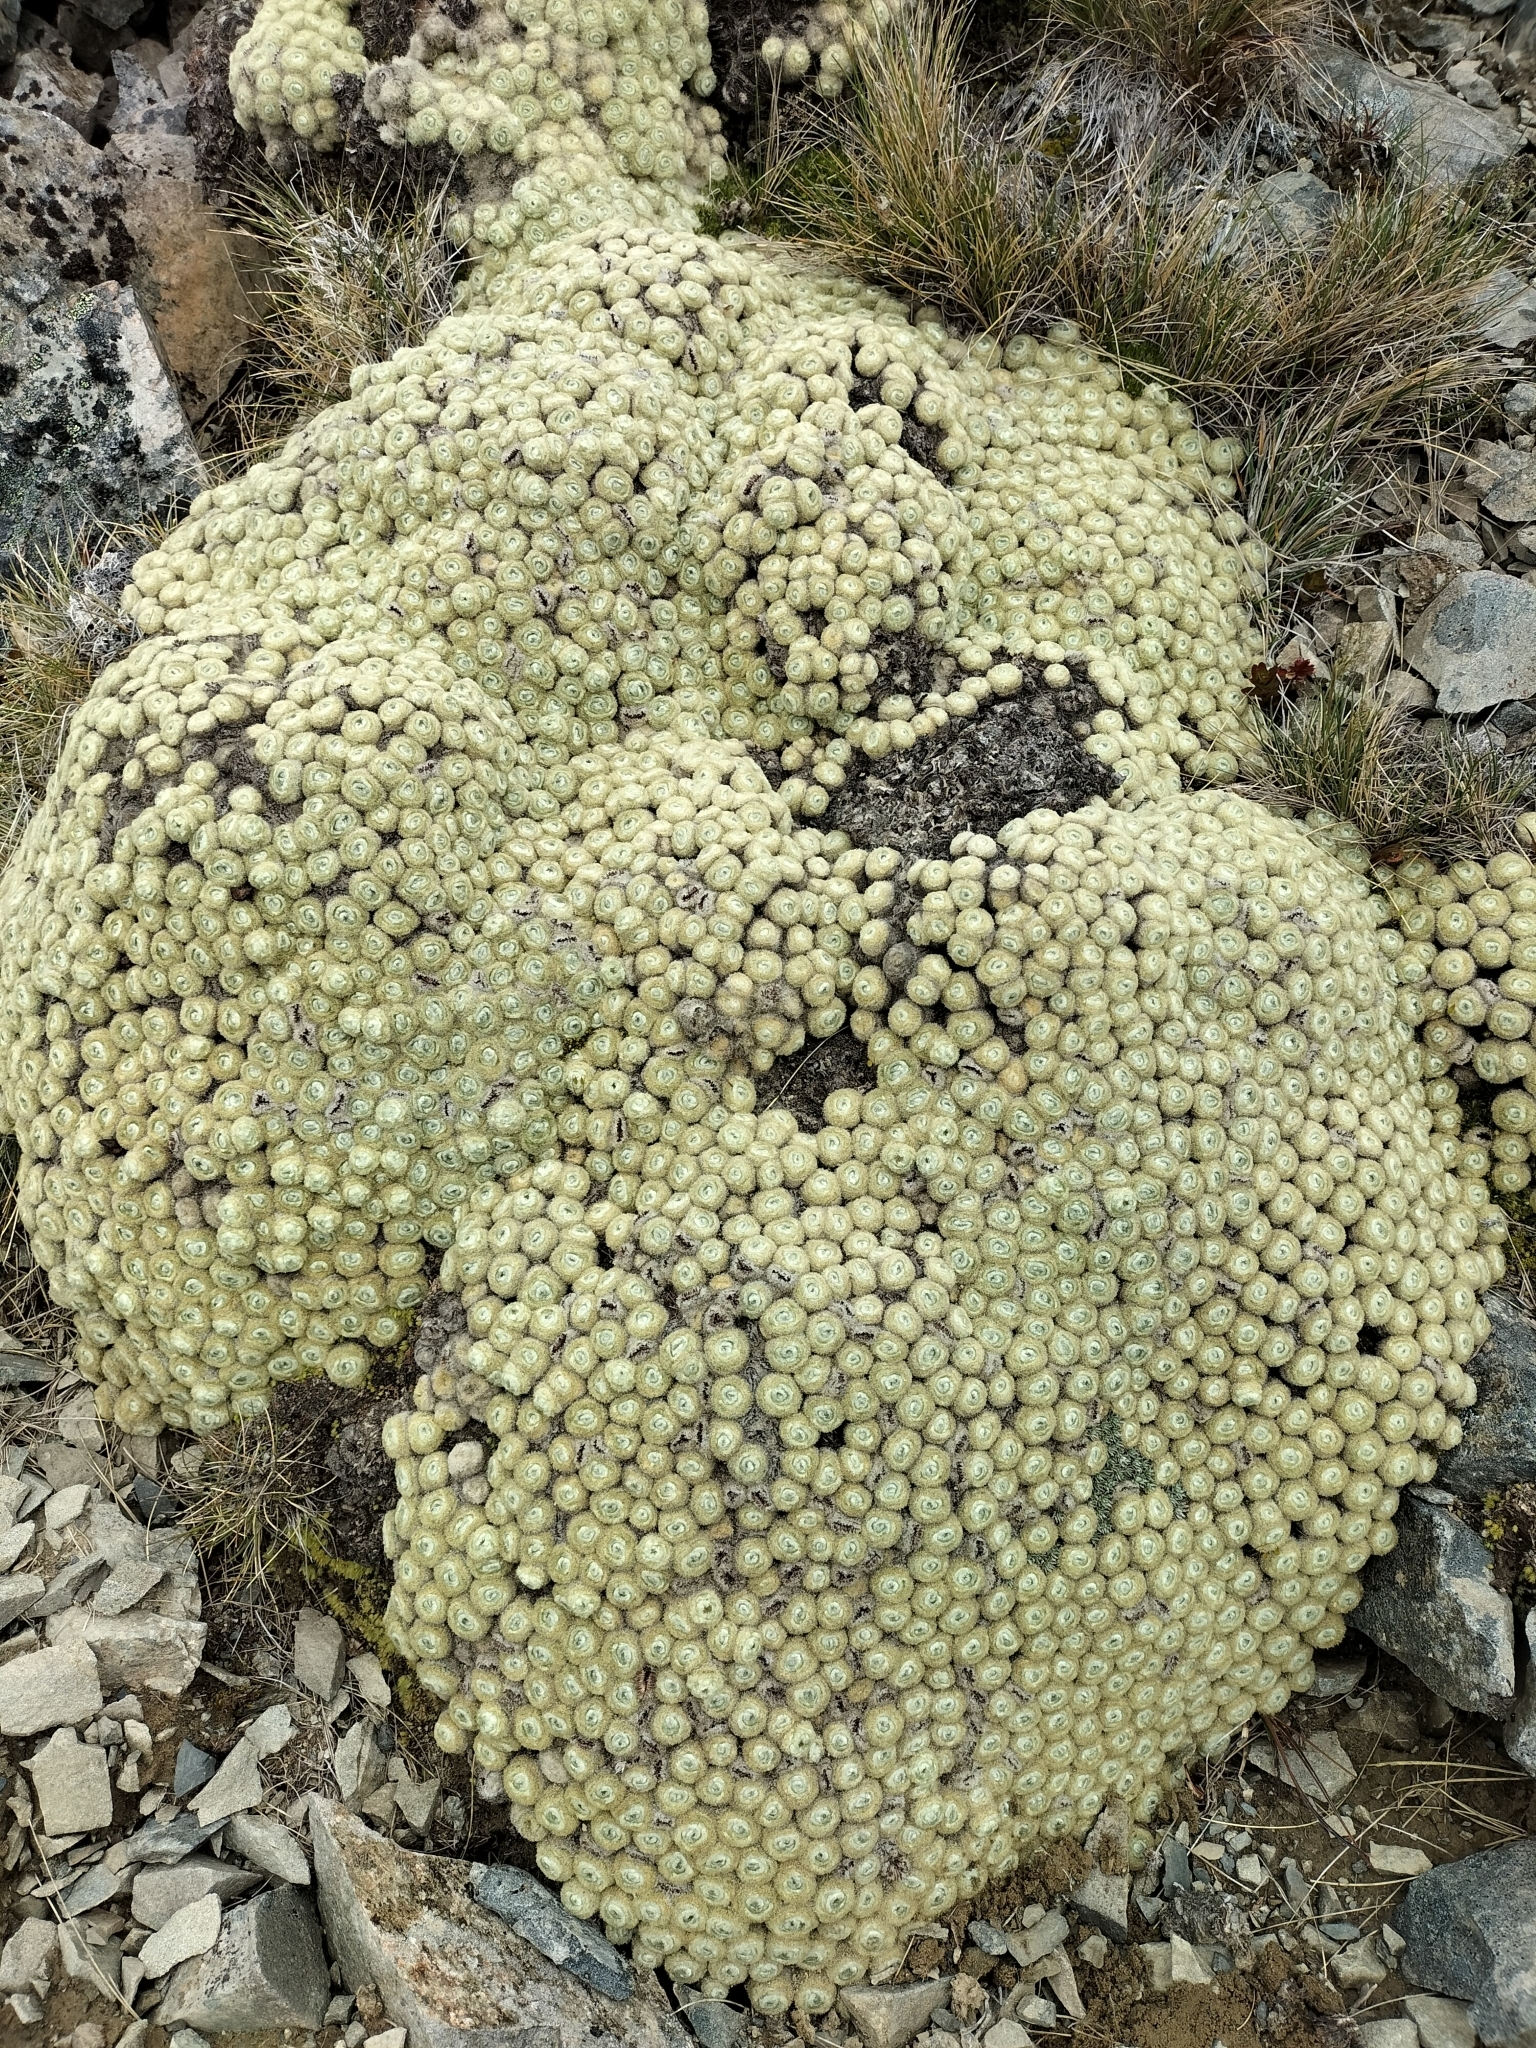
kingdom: Plantae
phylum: Tracheophyta
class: Magnoliopsida
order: Asterales
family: Asteraceae
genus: Haastia
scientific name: Haastia pulvinaris
